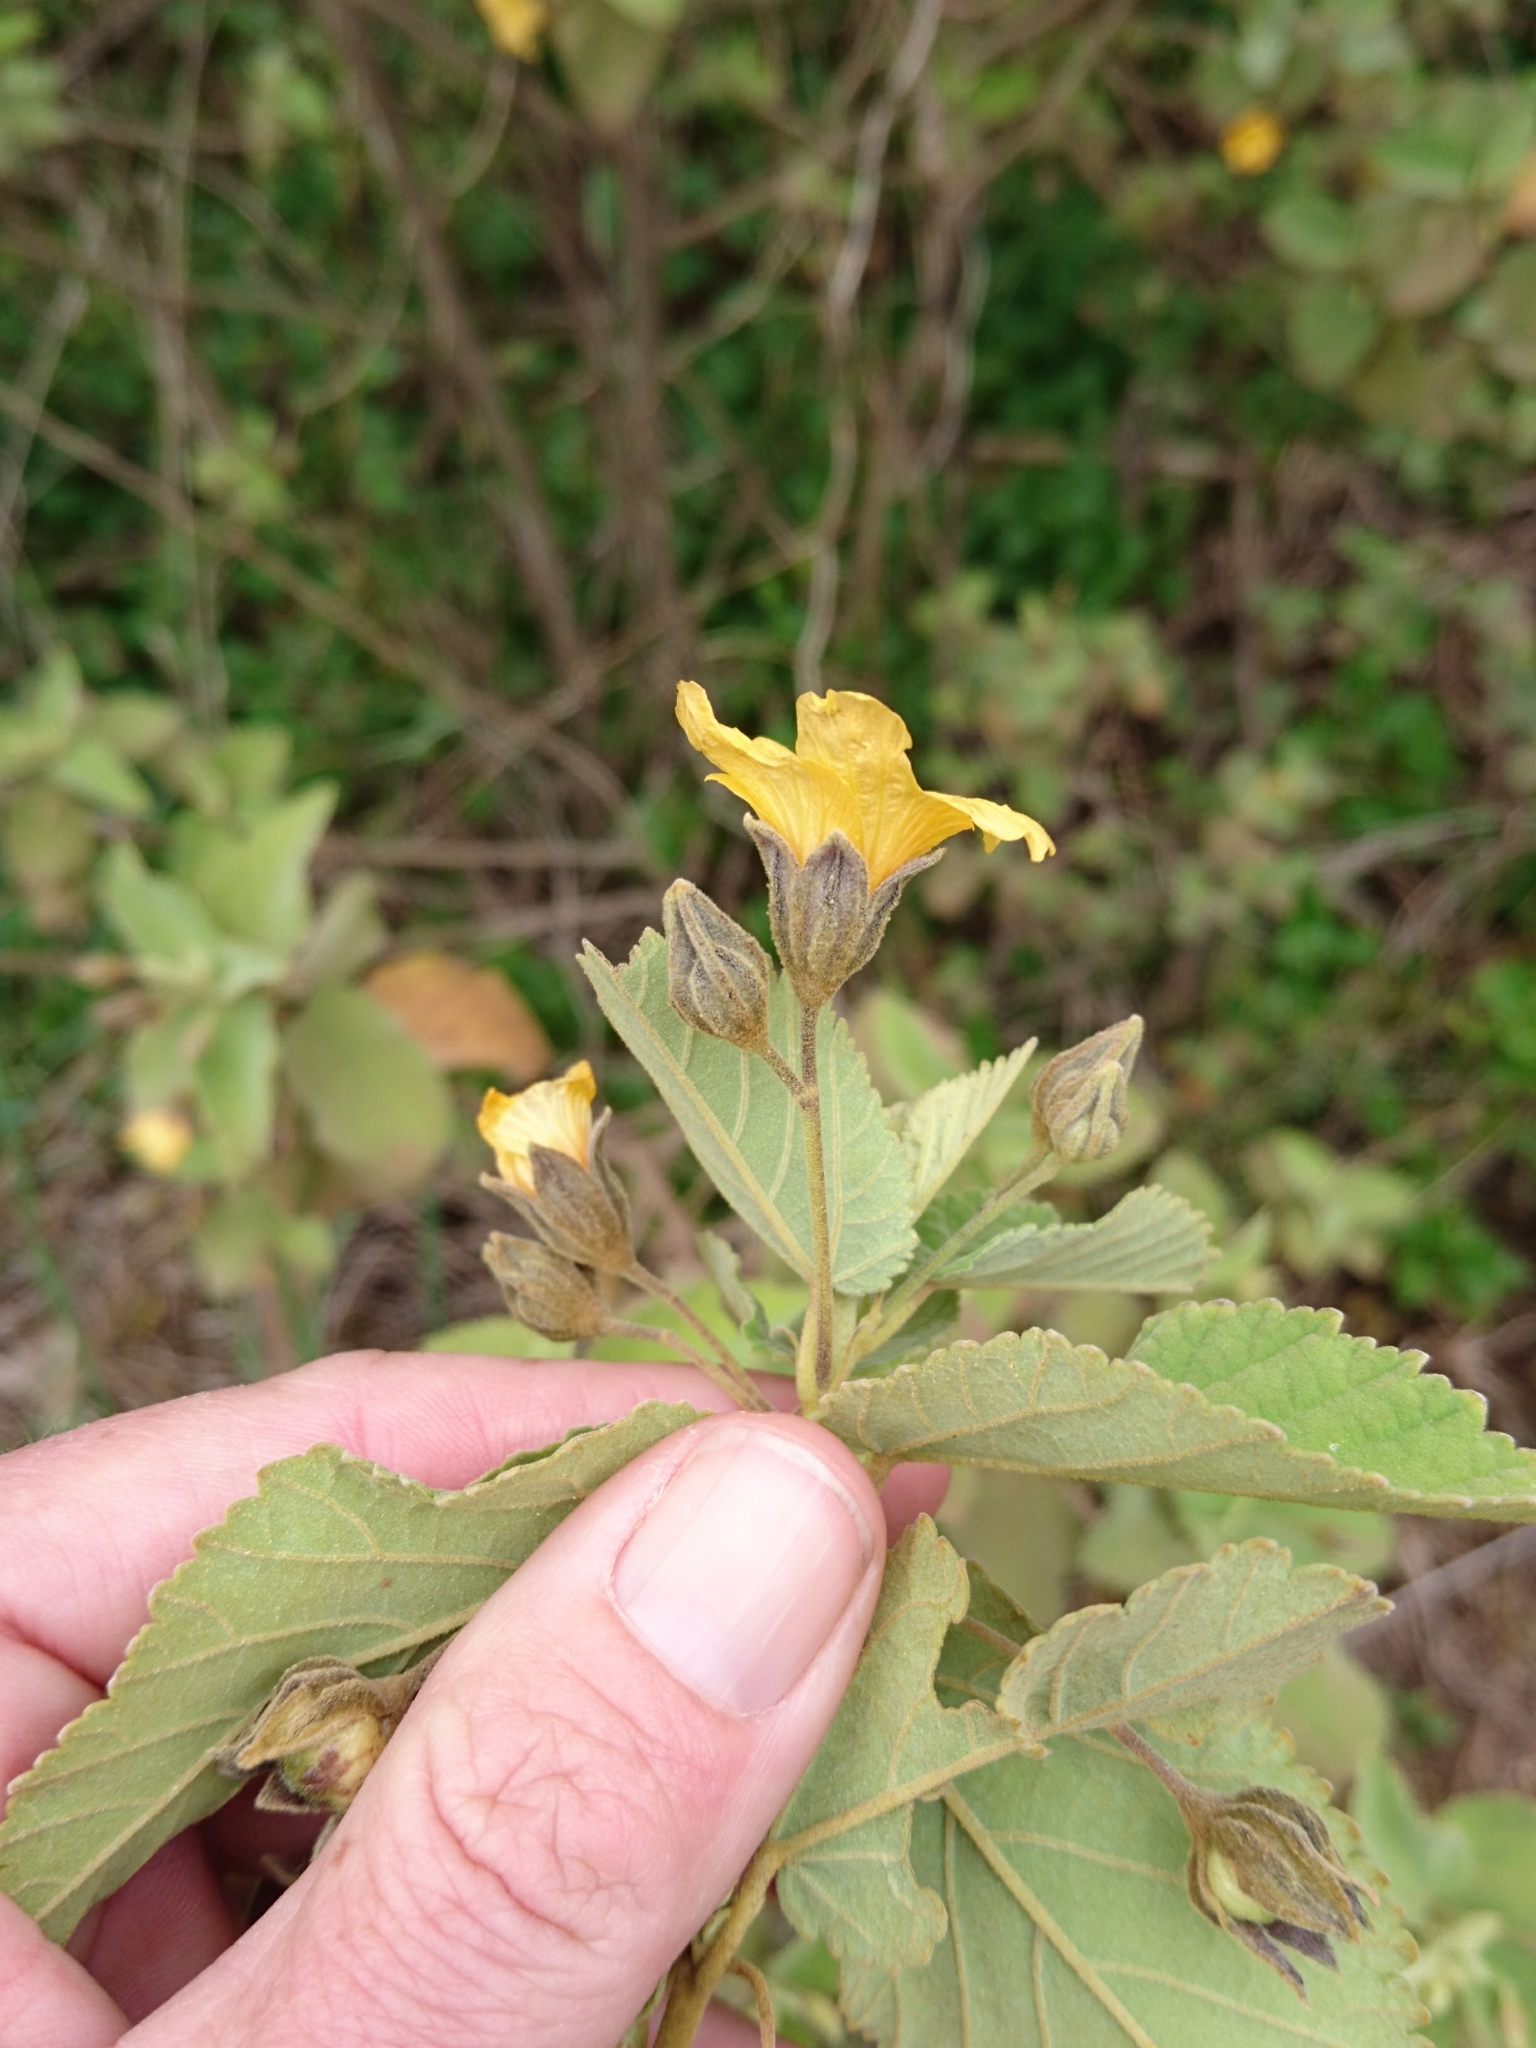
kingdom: Plantae
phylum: Tracheophyta
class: Magnoliopsida
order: Malvales
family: Malvaceae
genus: Sida
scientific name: Sida fallax
